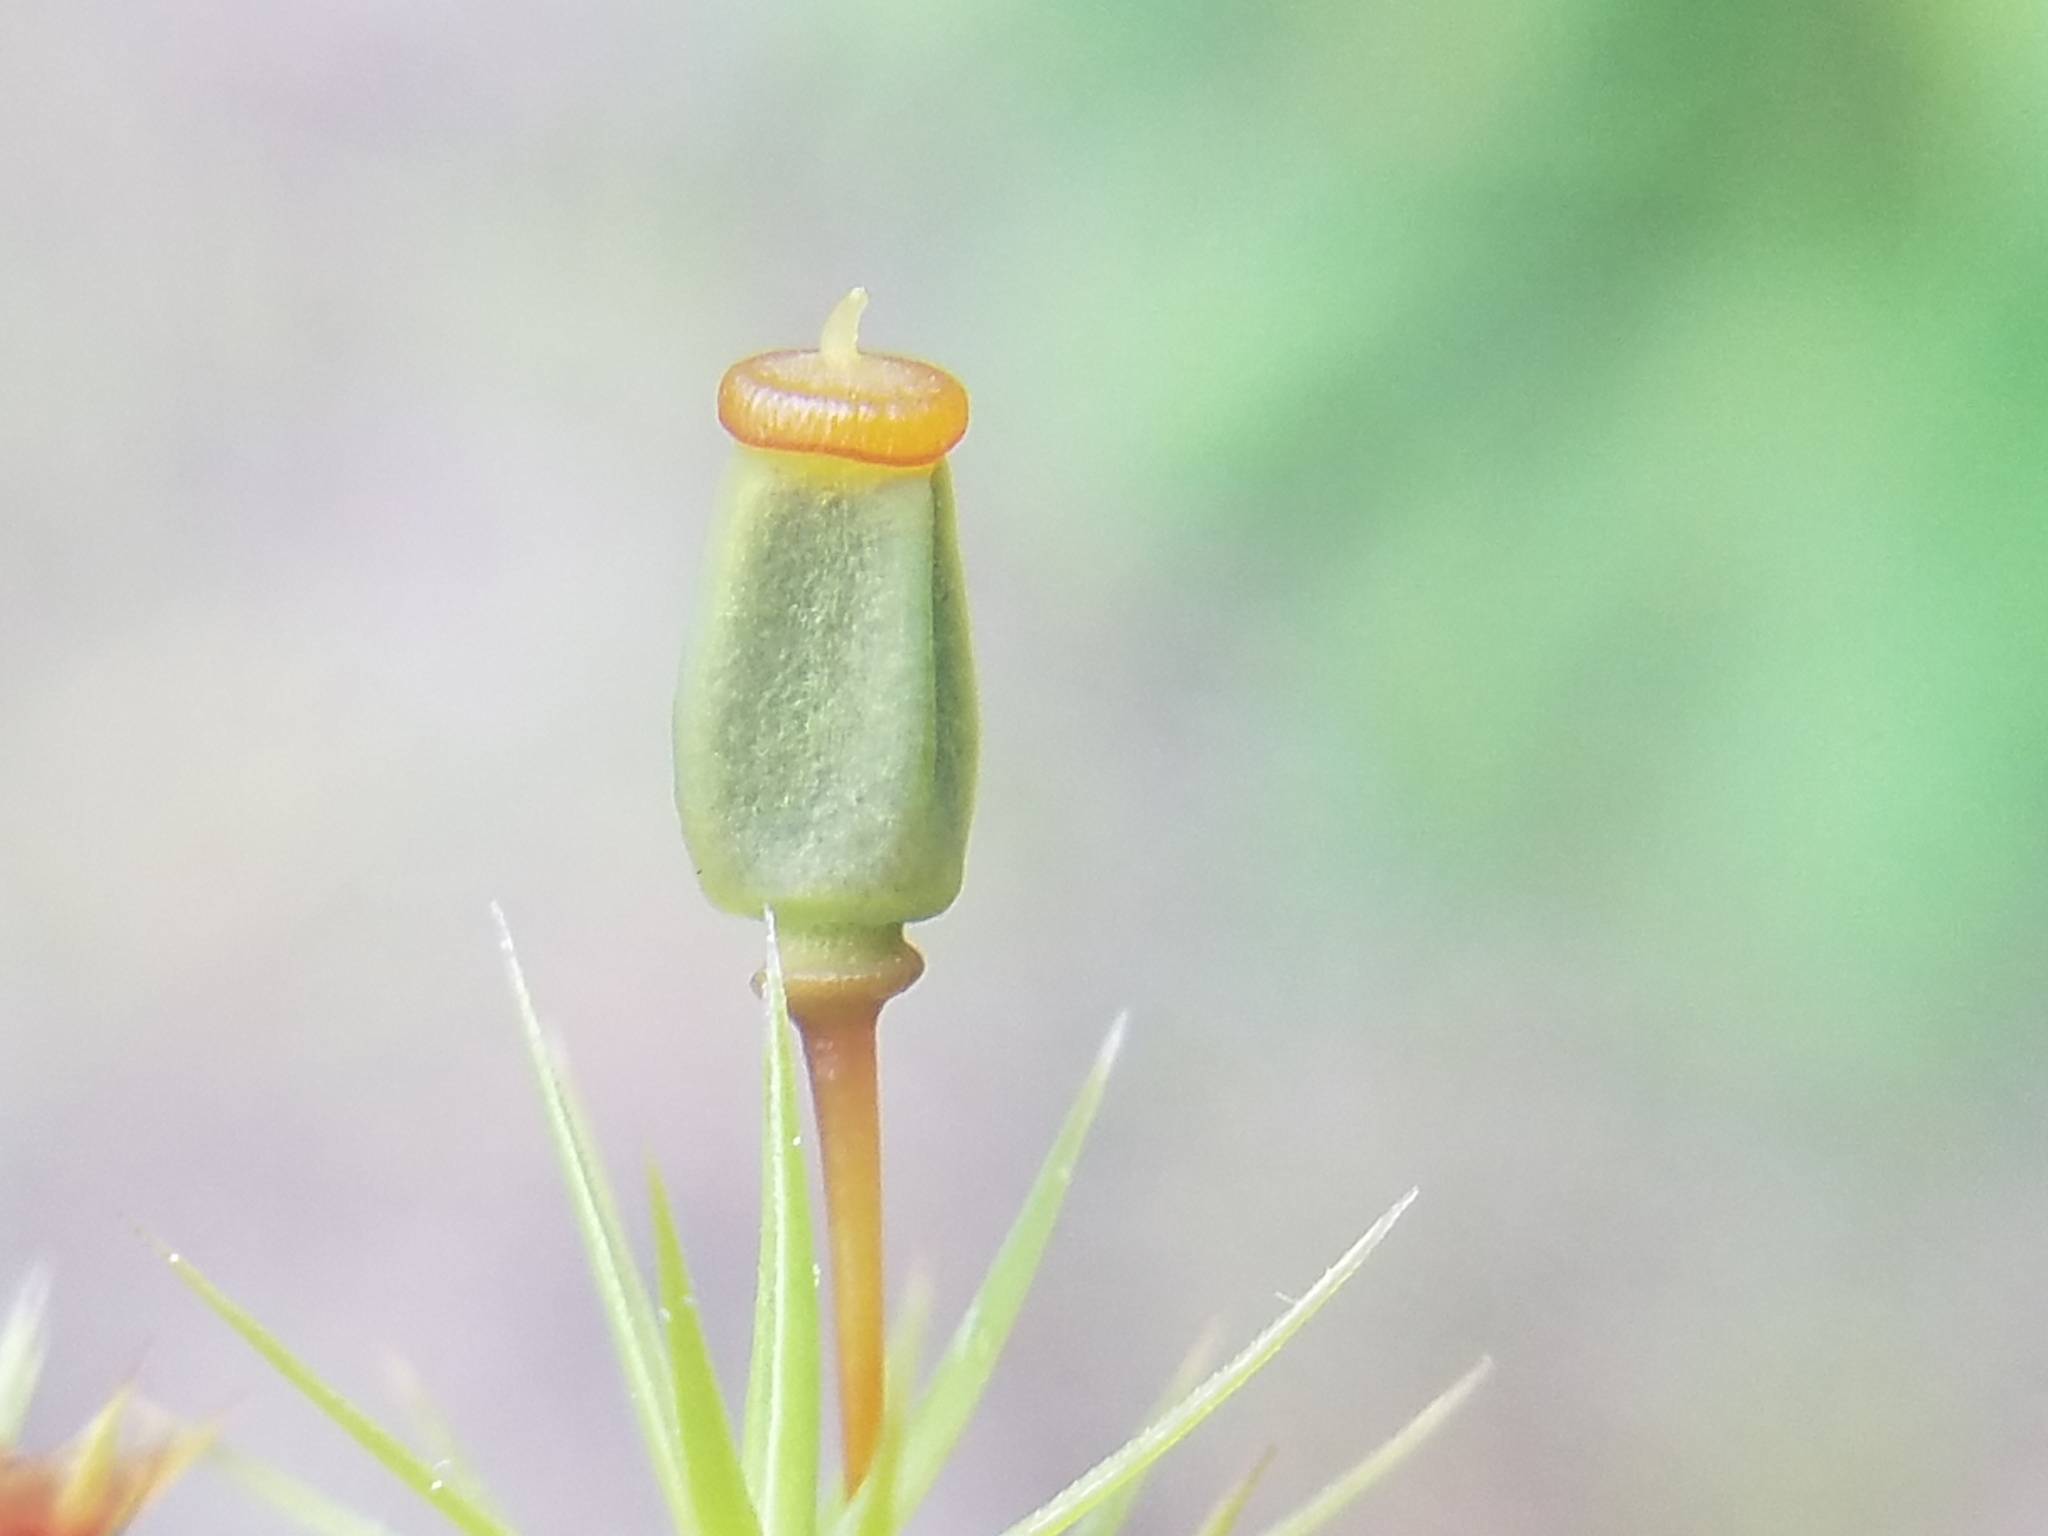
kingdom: Plantae
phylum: Bryophyta
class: Polytrichopsida
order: Polytrichales
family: Polytrichaceae
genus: Polytrichum
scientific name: Polytrichum commune
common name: Common haircap
